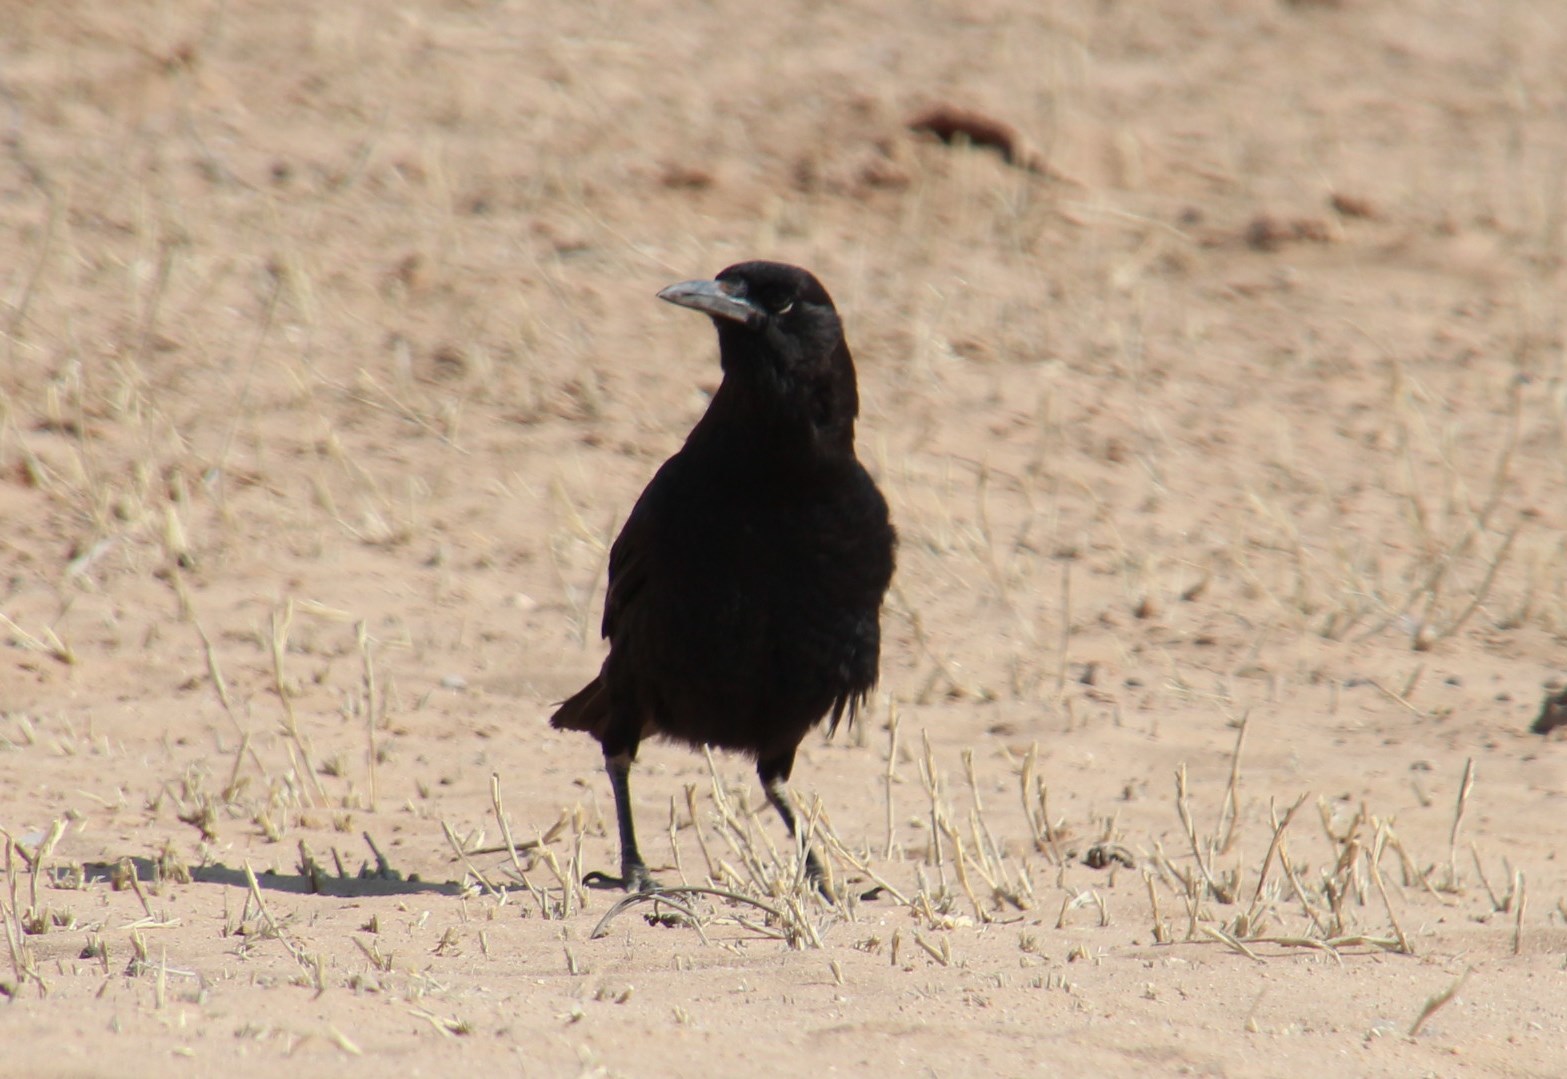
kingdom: Animalia
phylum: Chordata
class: Aves
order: Passeriformes
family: Corvidae
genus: Corvus
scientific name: Corvus capensis
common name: Cape crow
